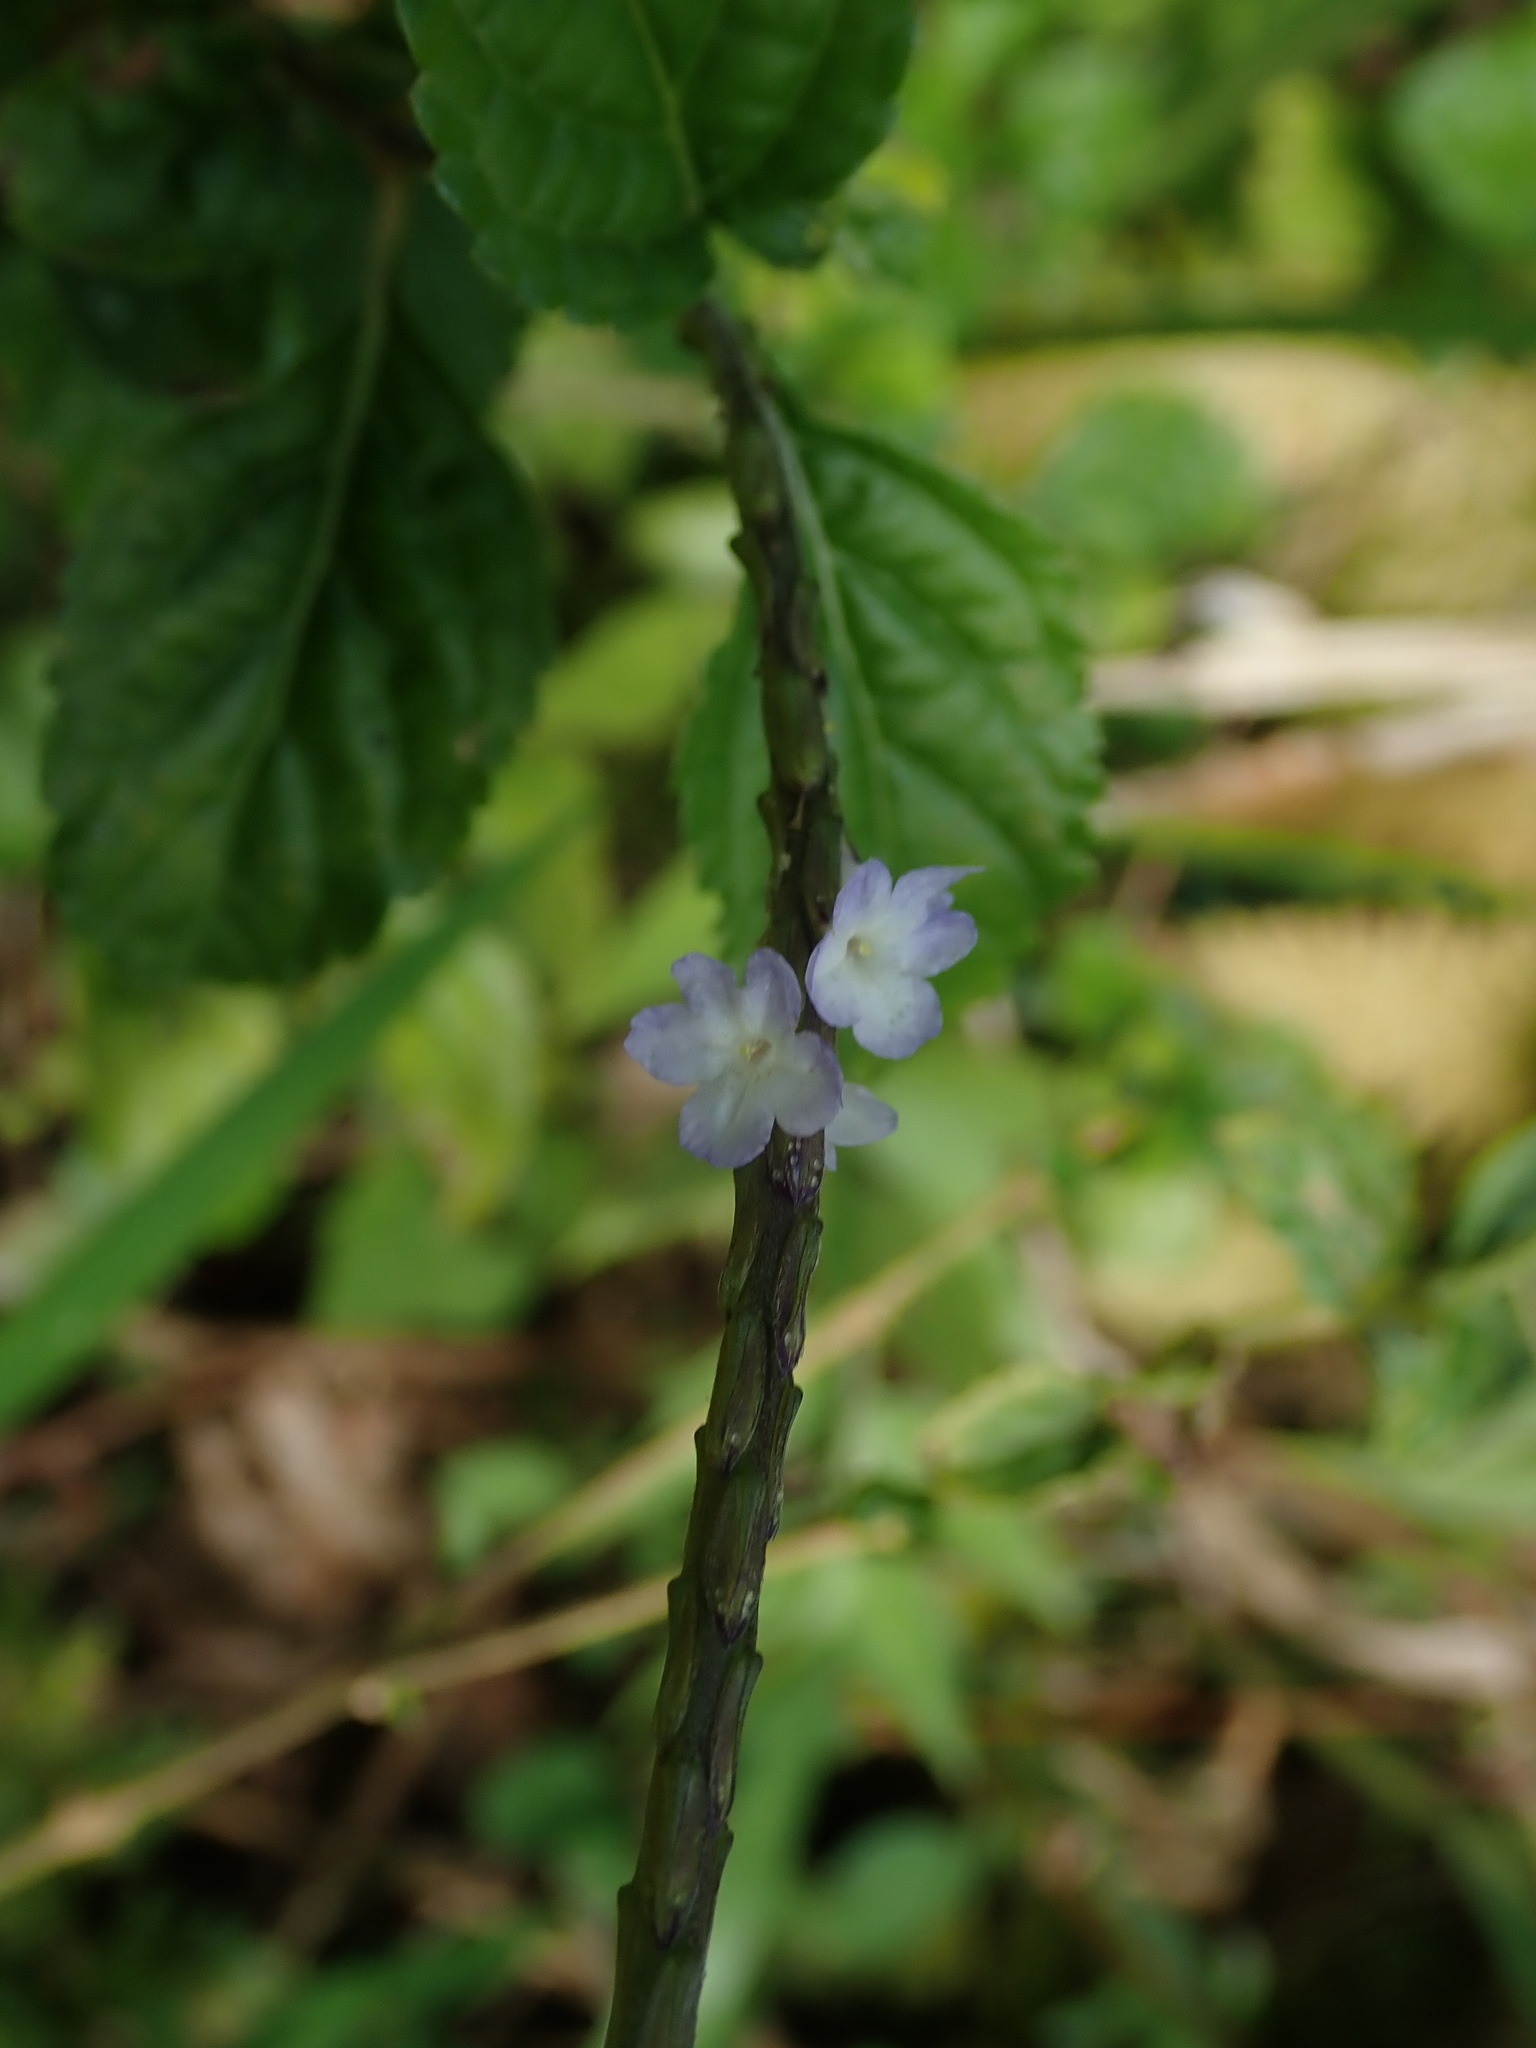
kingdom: Plantae
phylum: Tracheophyta
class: Magnoliopsida
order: Lamiales
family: Verbenaceae
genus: Stachytarpheta
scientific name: Stachytarpheta jamaicensis
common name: Light-blue snakeweed
